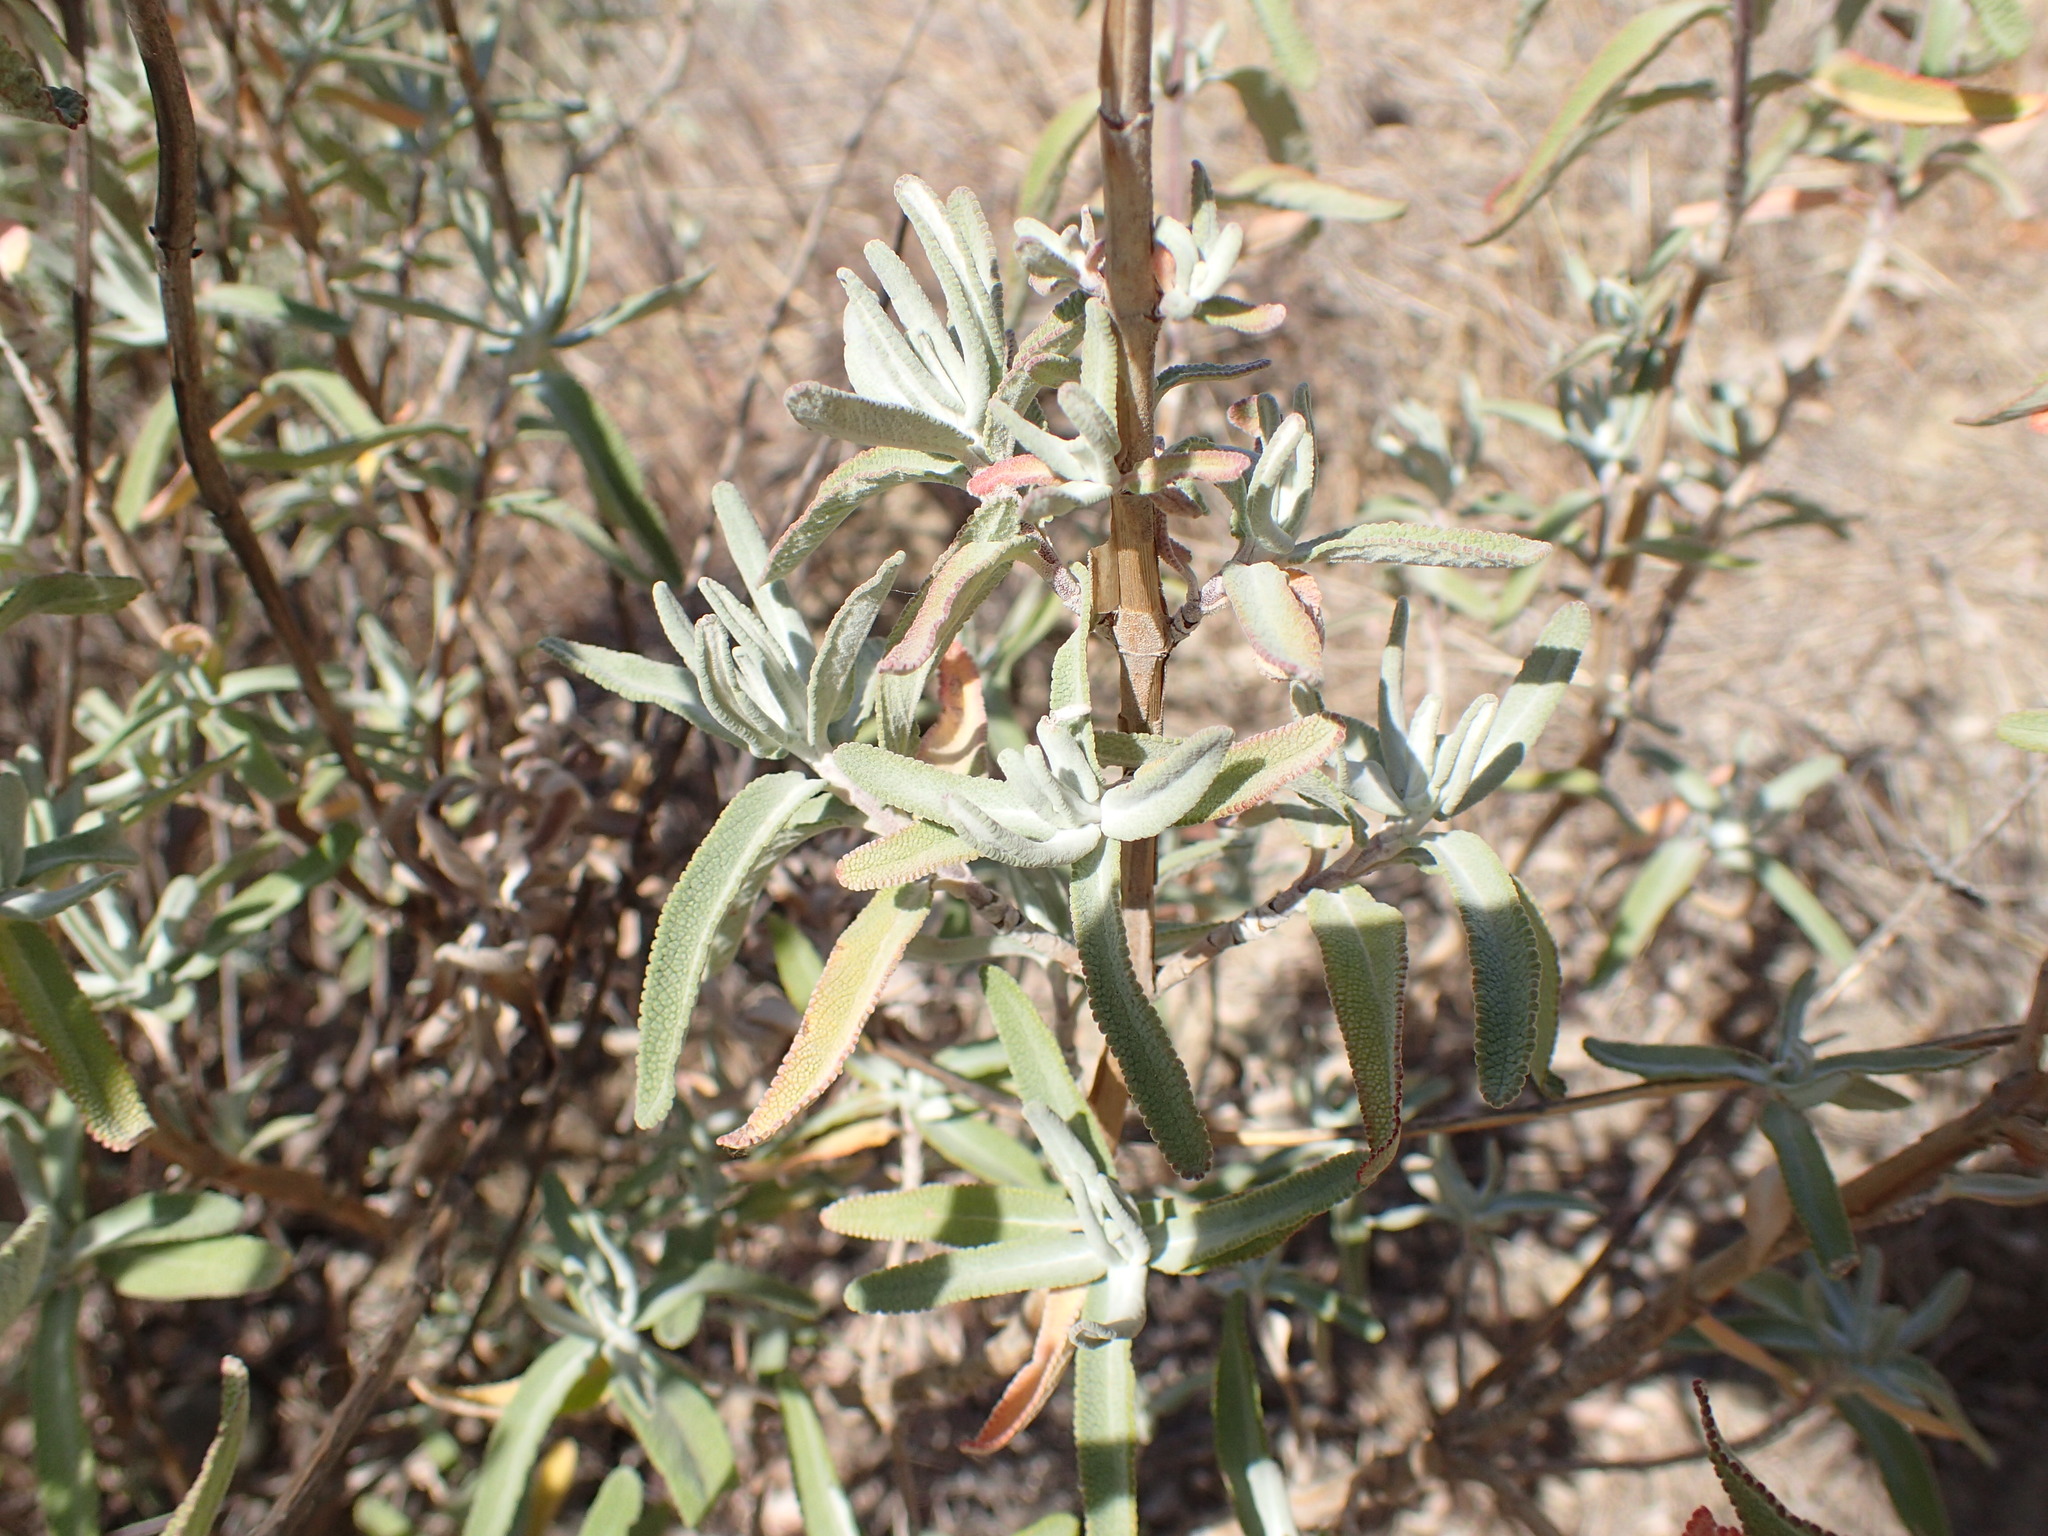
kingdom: Plantae
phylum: Tracheophyta
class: Magnoliopsida
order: Lamiales
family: Lamiaceae
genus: Salvia
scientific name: Salvia leucophylla
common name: Purple sage
